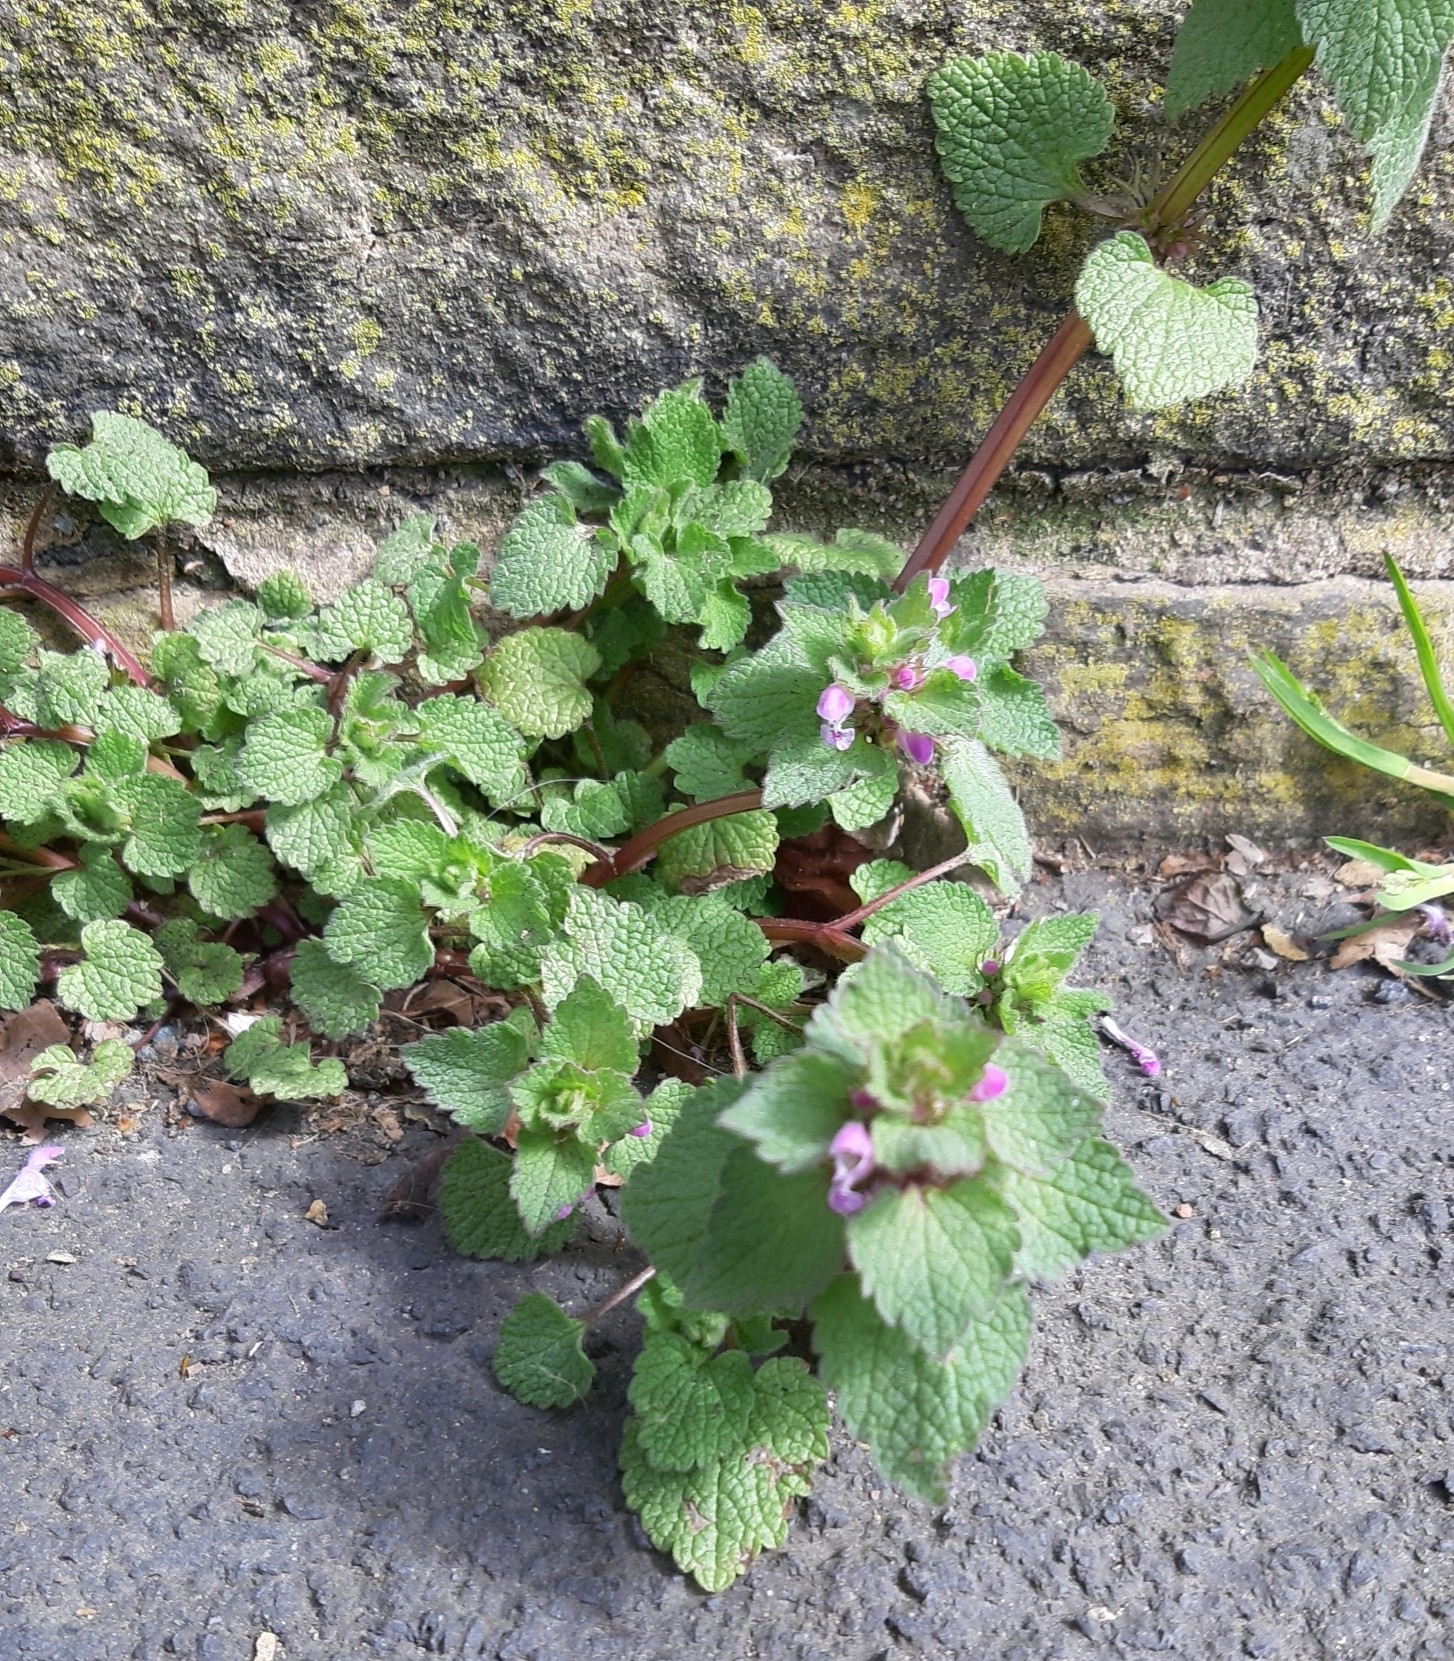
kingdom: Plantae
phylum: Tracheophyta
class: Magnoliopsida
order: Lamiales
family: Lamiaceae
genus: Lamium
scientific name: Lamium purpureum
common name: Red dead-nettle
